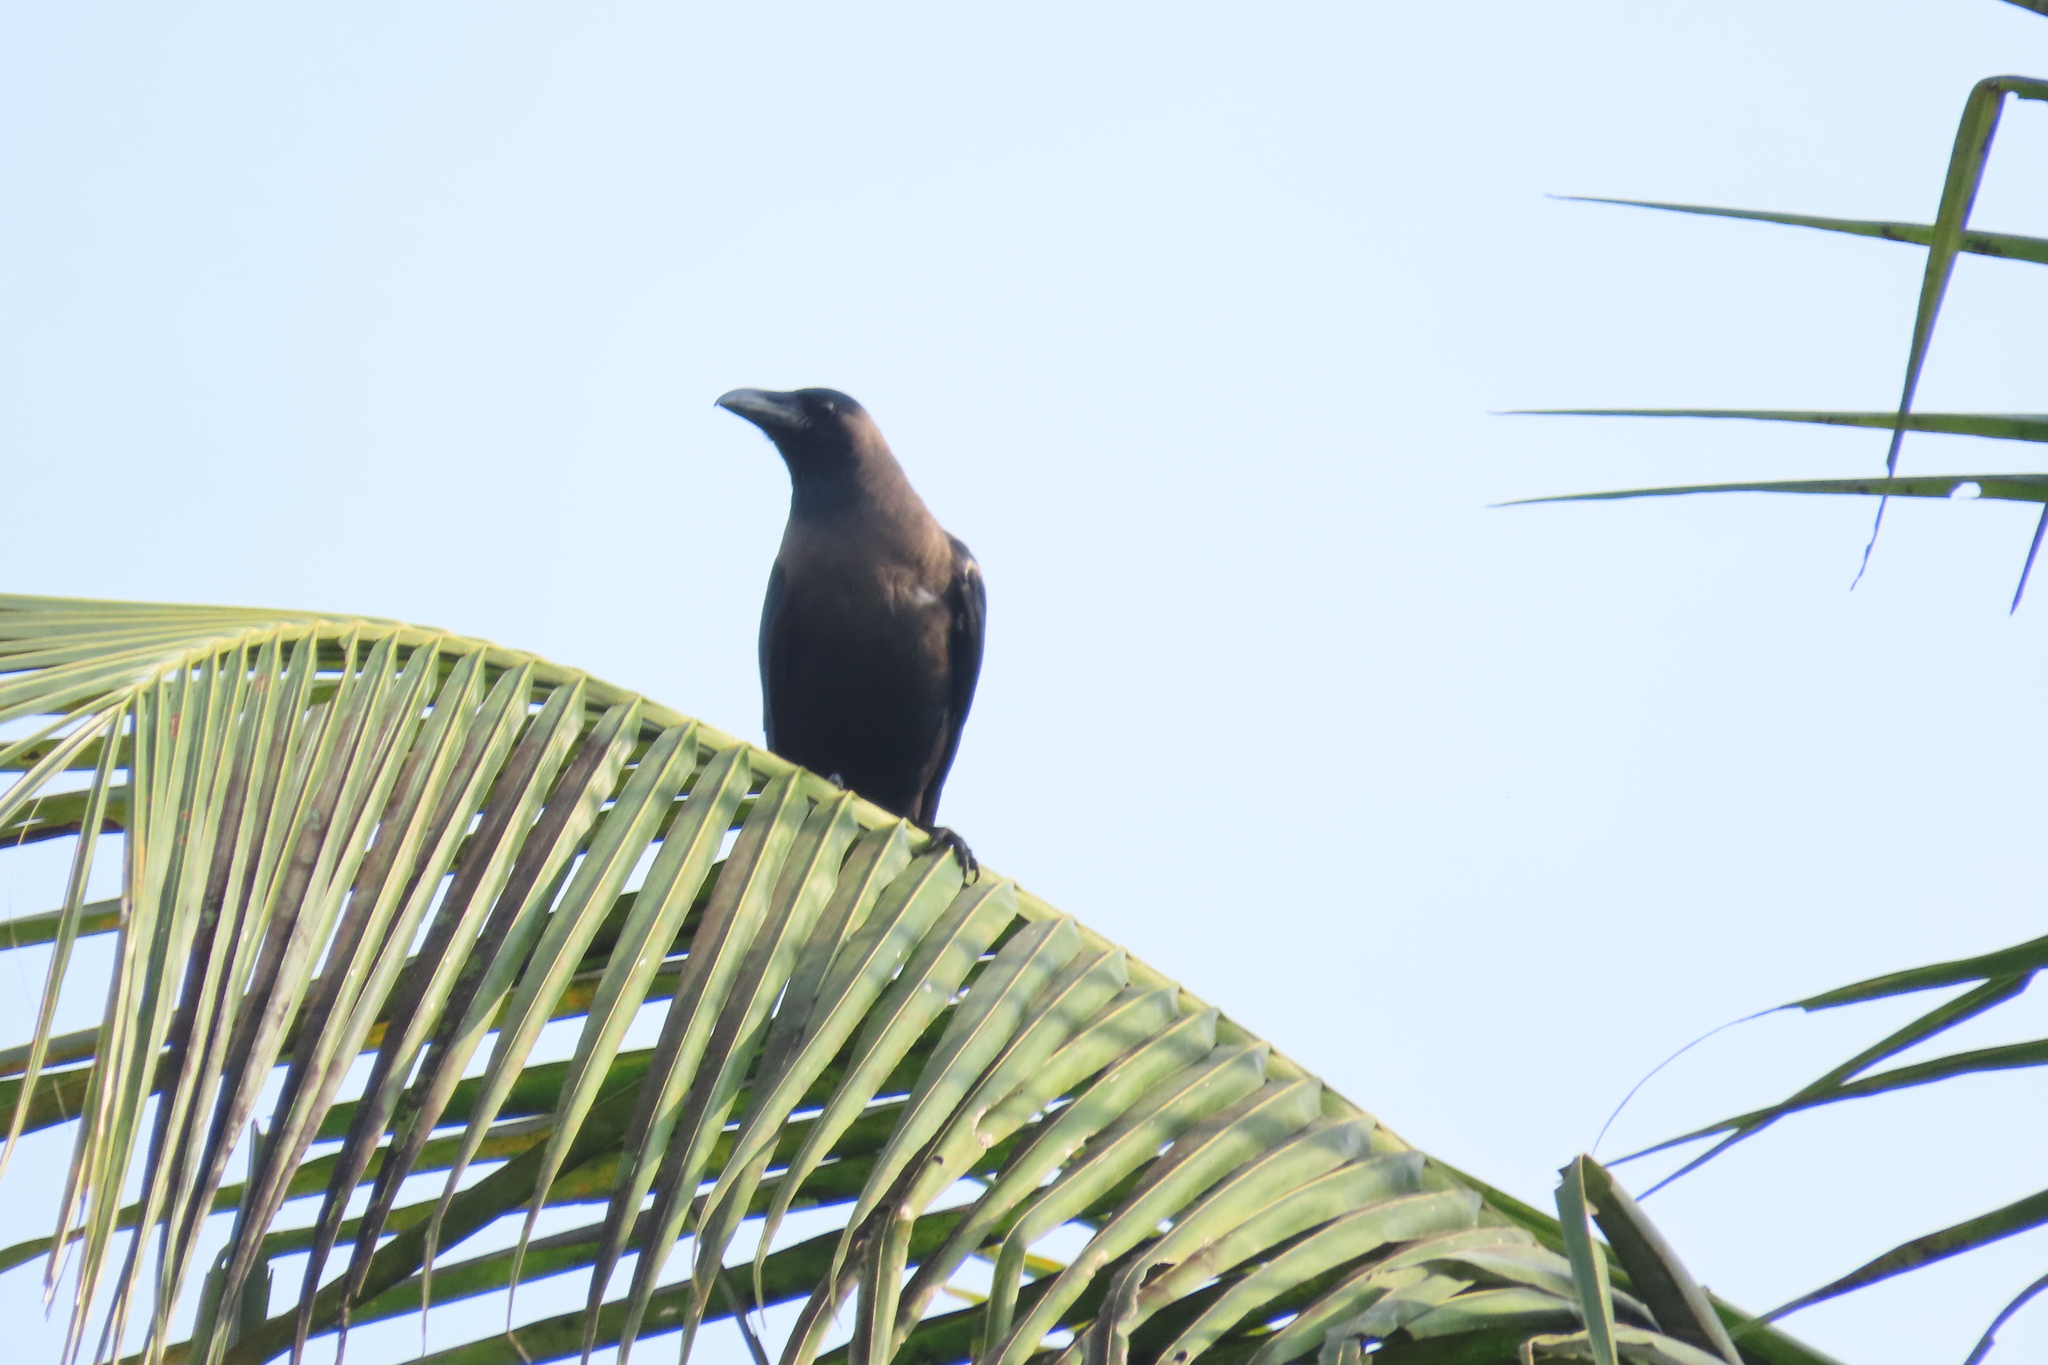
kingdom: Animalia
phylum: Chordata
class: Aves
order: Passeriformes
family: Corvidae
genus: Corvus
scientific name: Corvus splendens
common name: House crow
